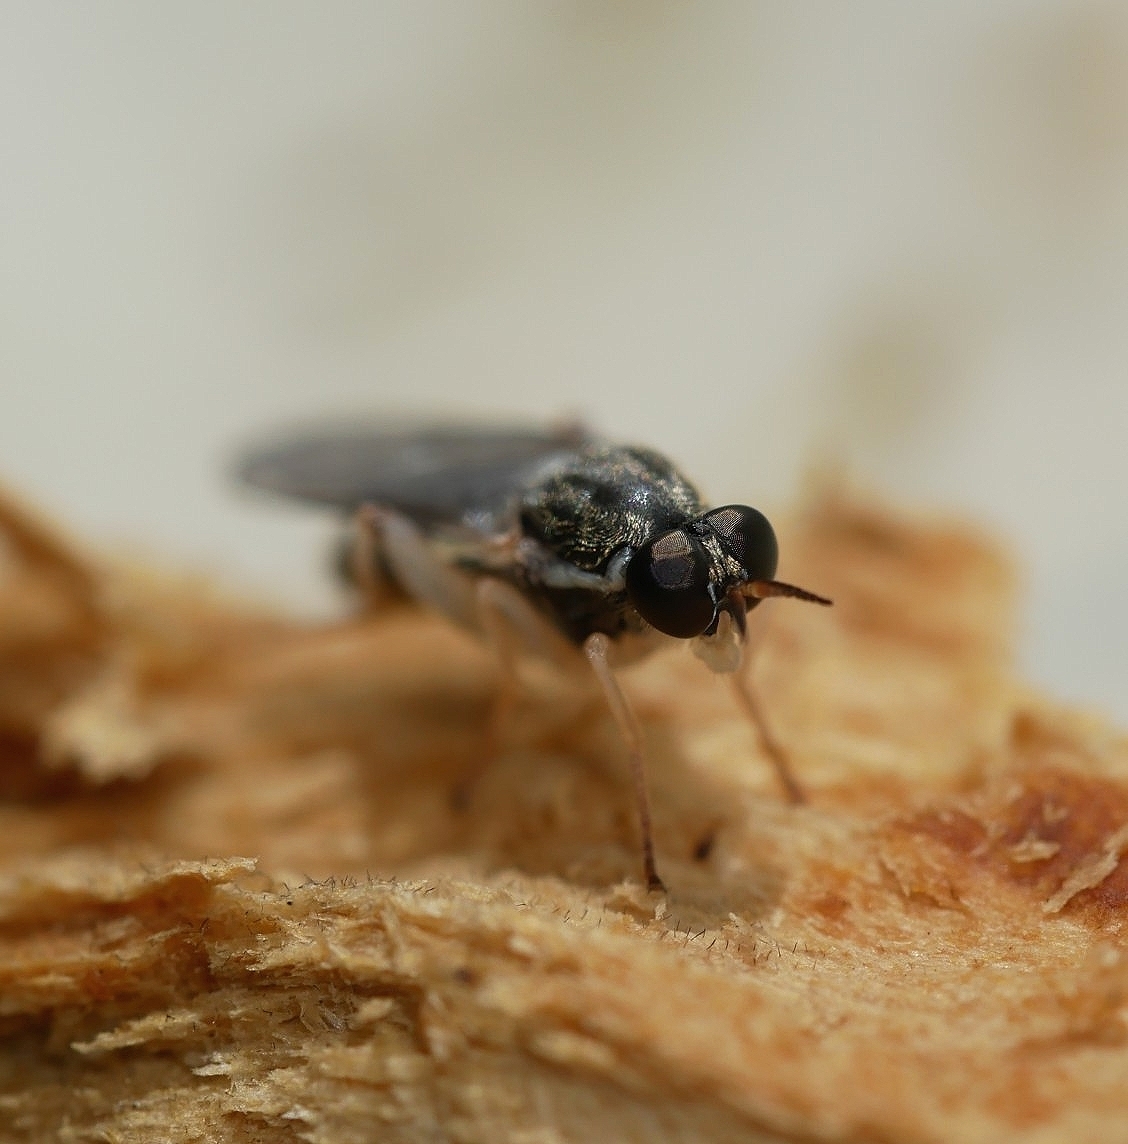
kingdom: Animalia
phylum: Arthropoda
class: Insecta
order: Diptera
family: Xylomyidae
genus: Solva
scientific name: Solva pallipes
